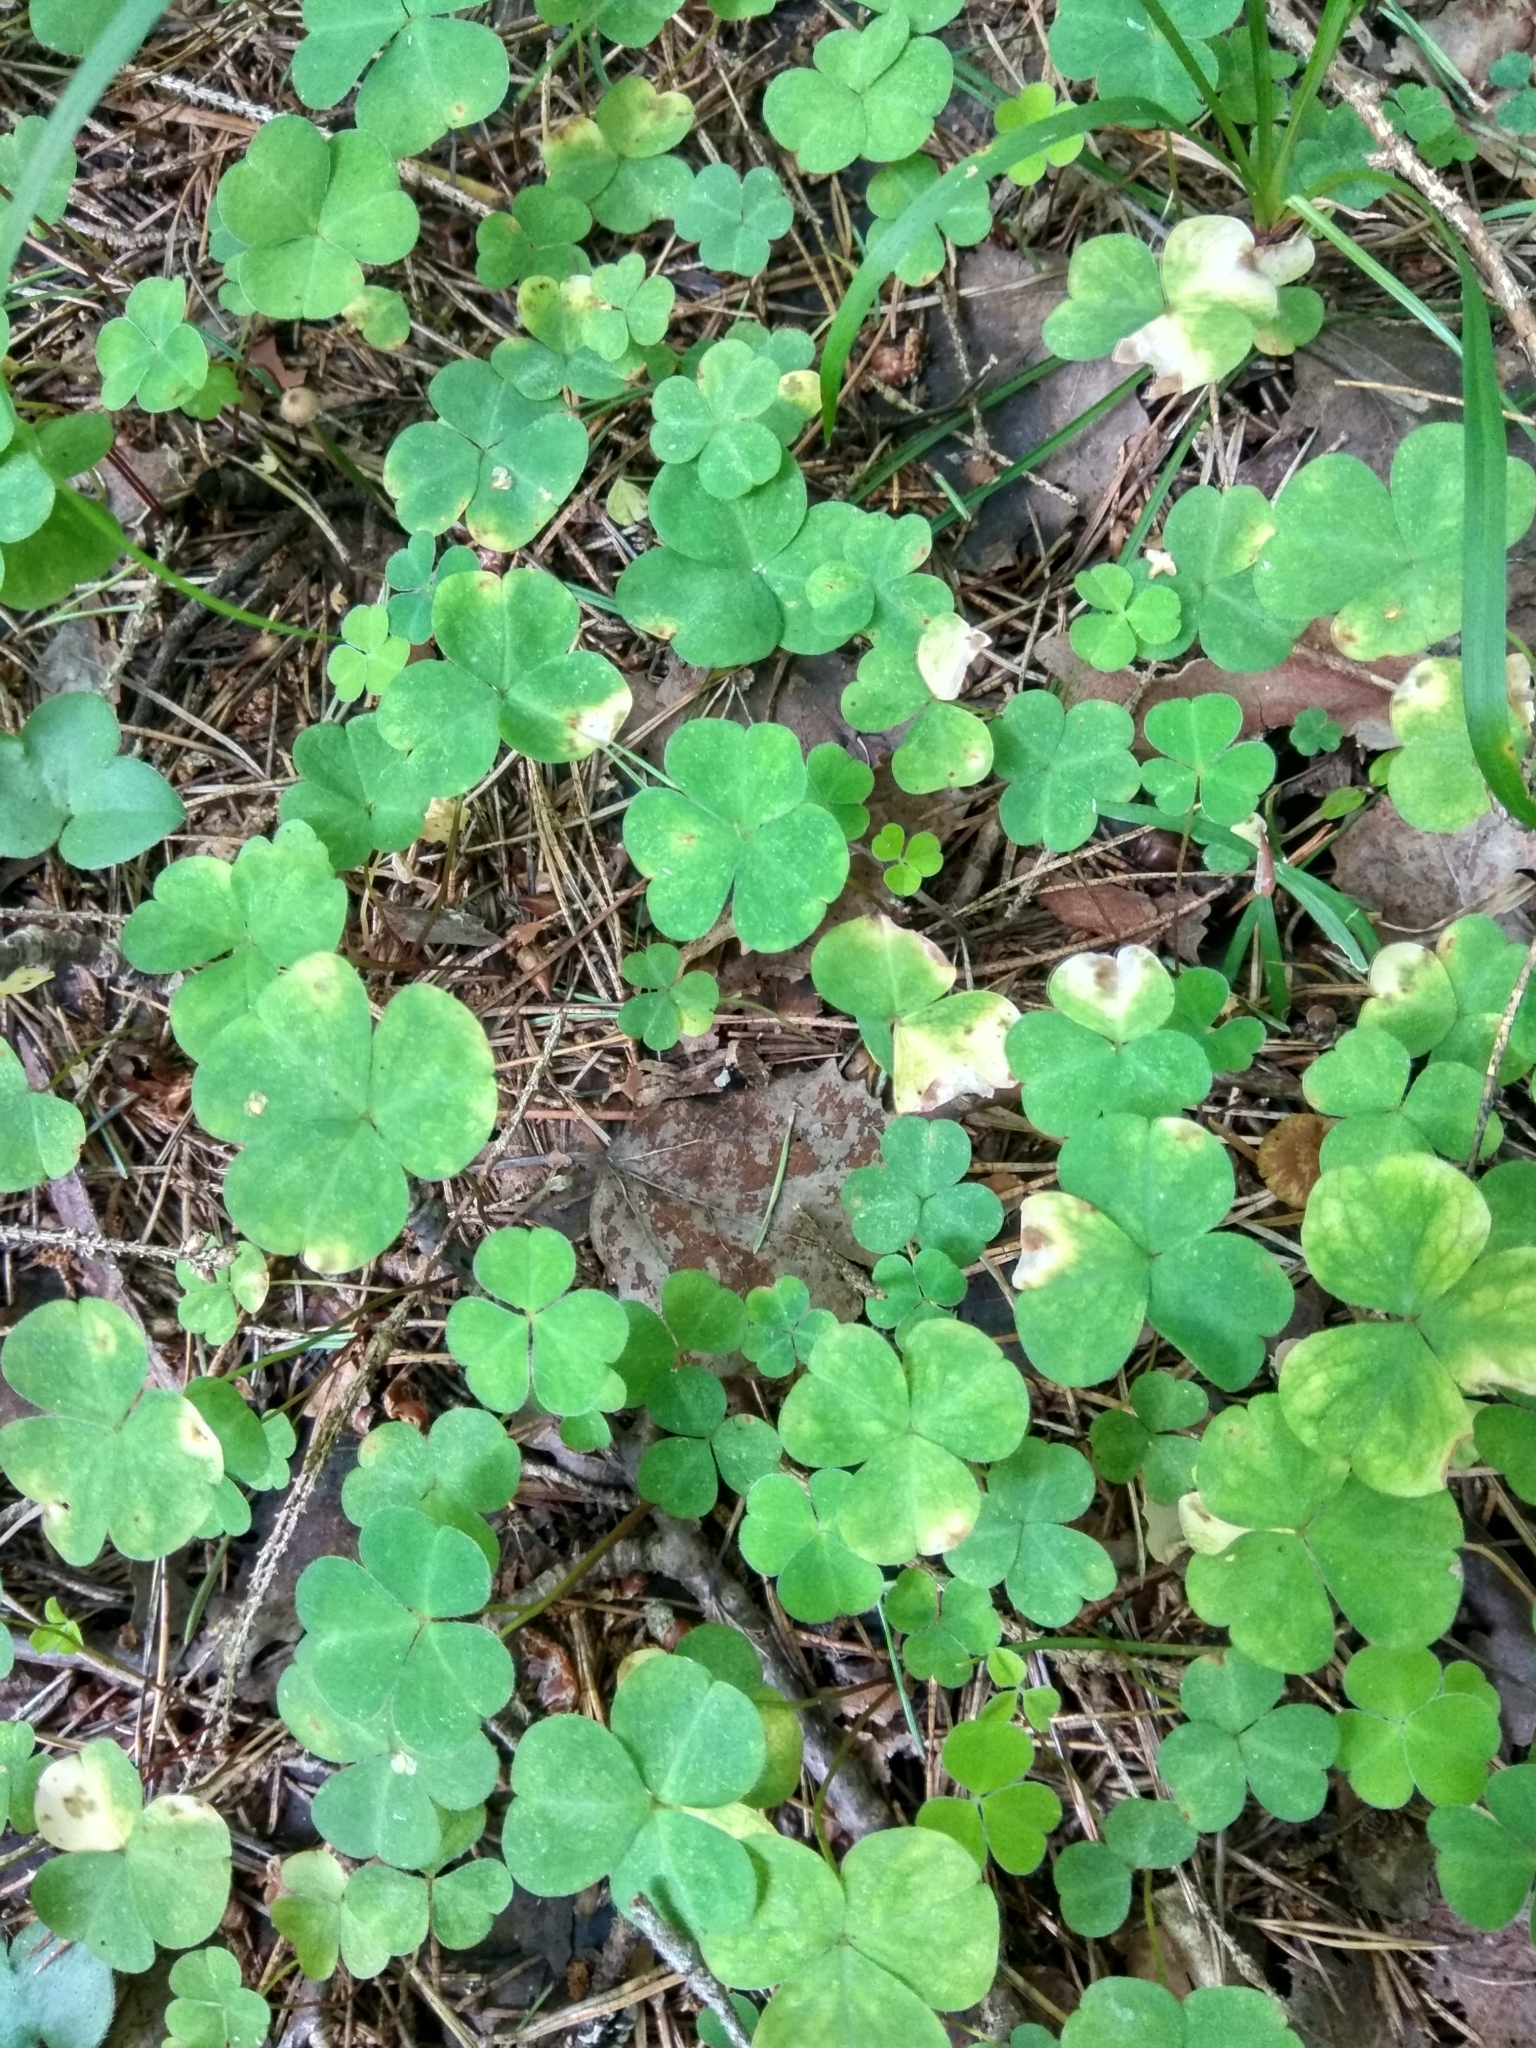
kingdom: Plantae
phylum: Tracheophyta
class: Magnoliopsida
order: Oxalidales
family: Oxalidaceae
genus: Oxalis
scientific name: Oxalis acetosella
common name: Wood-sorrel
